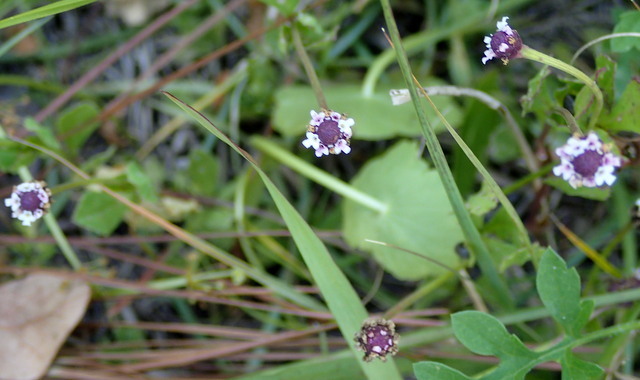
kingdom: Plantae
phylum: Tracheophyta
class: Magnoliopsida
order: Lamiales
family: Verbenaceae
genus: Phyla
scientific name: Phyla nodiflora
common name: Frogfruit
